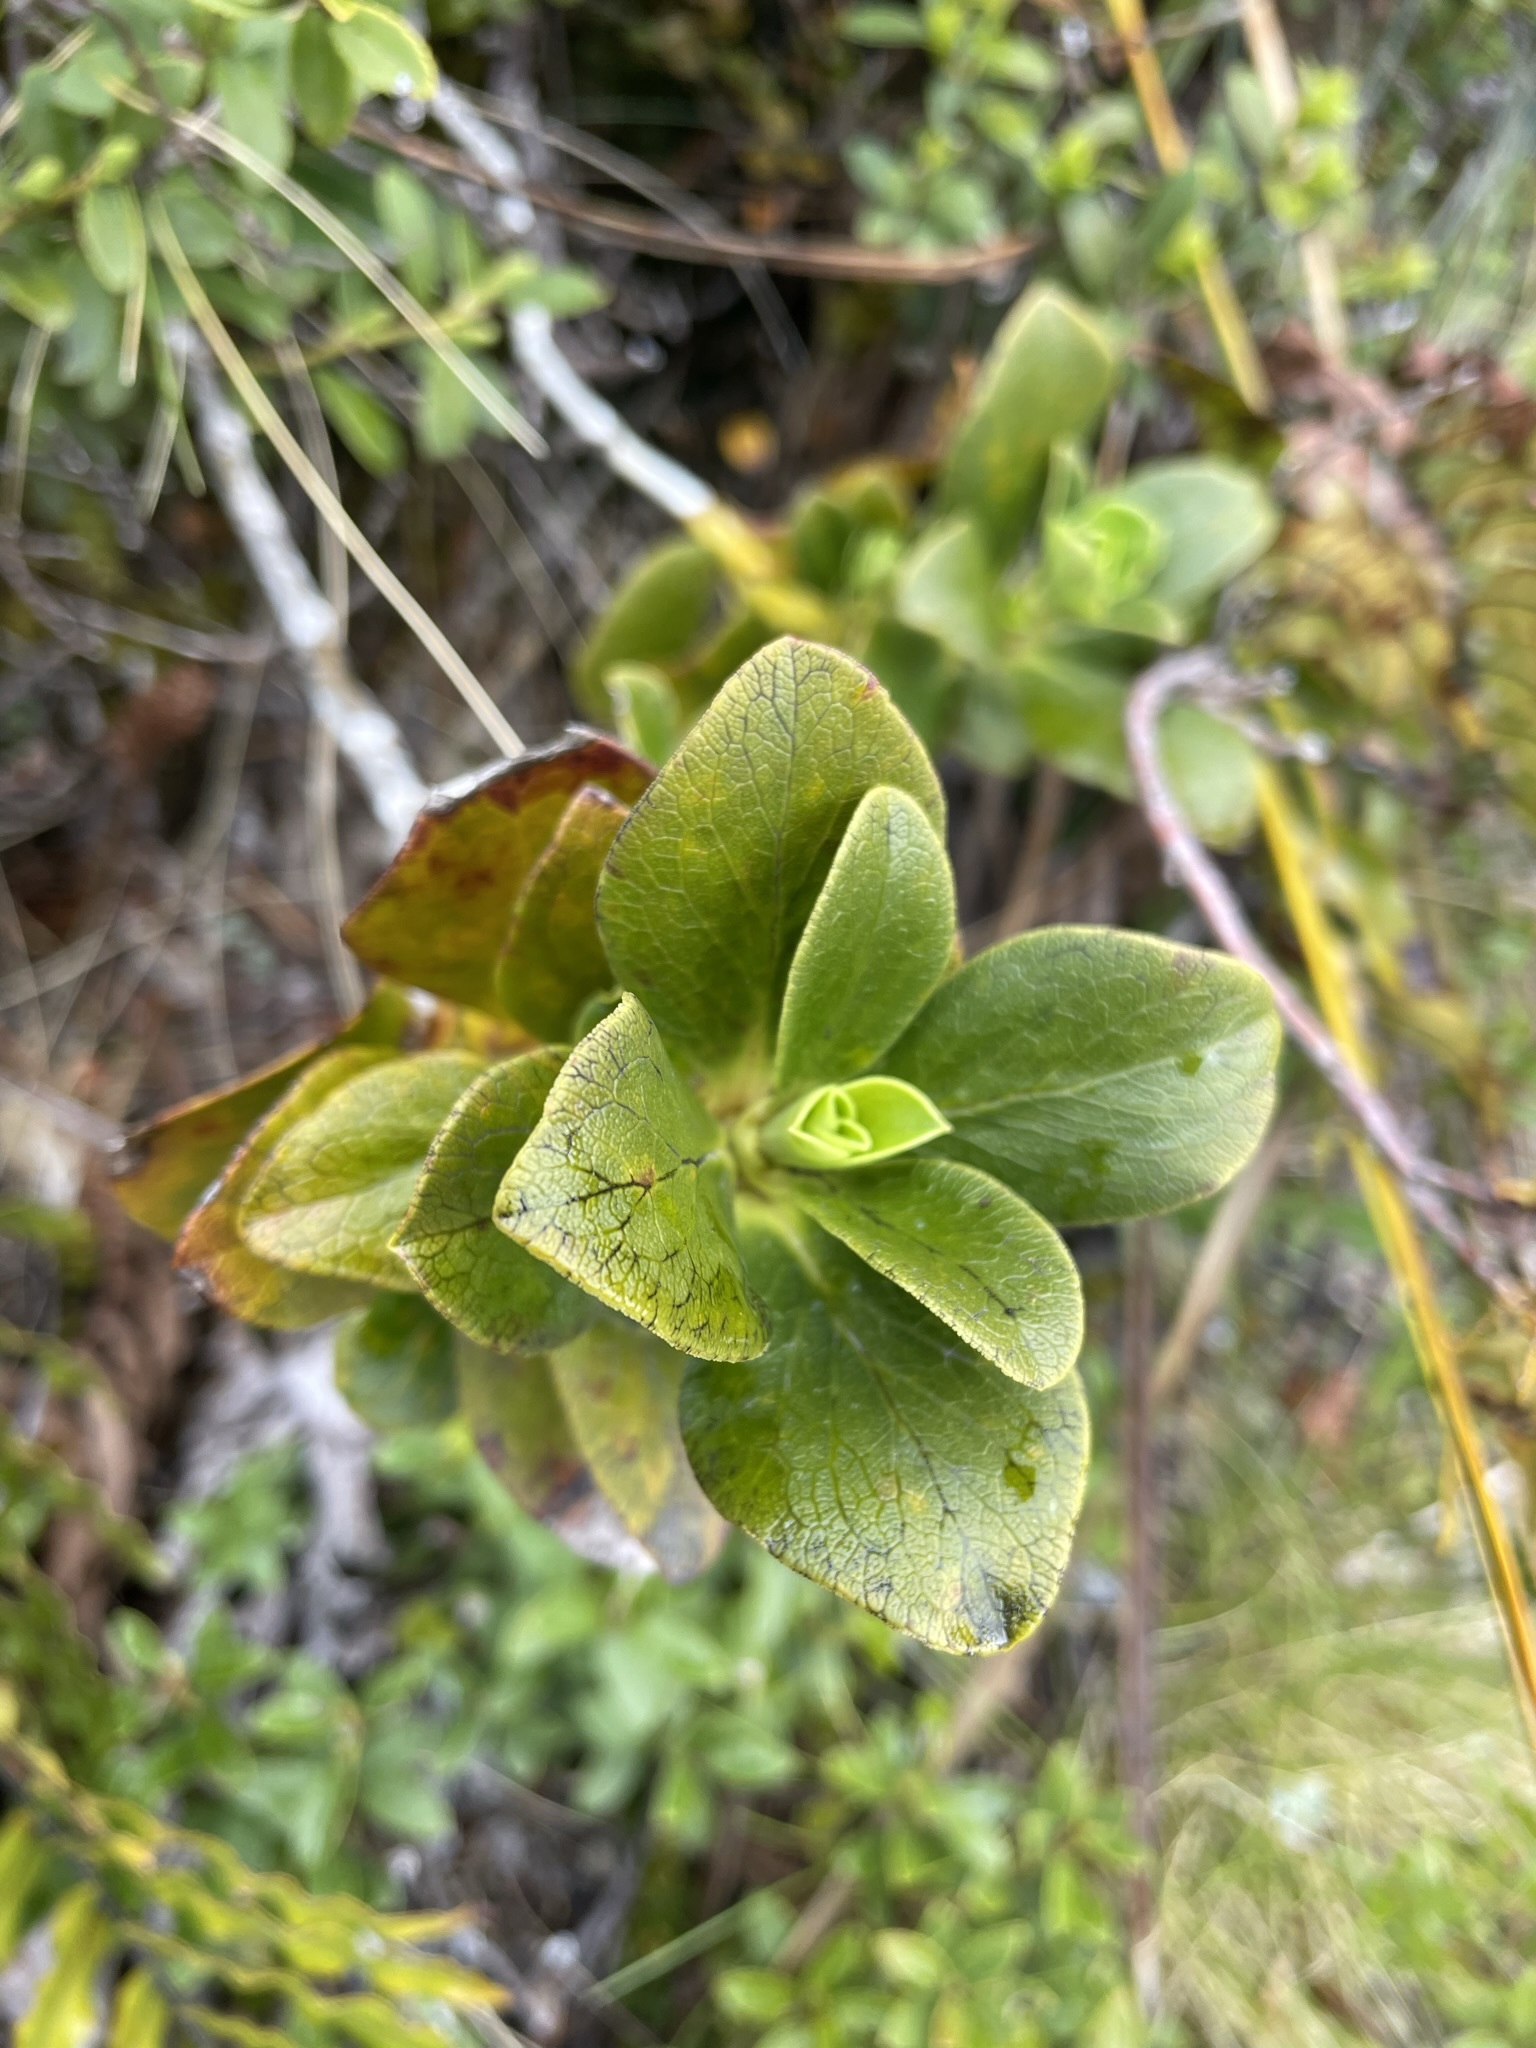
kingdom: Plantae
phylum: Tracheophyta
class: Magnoliopsida
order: Gentianales
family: Rubiaceae
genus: Coprosma
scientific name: Coprosma serrulata
